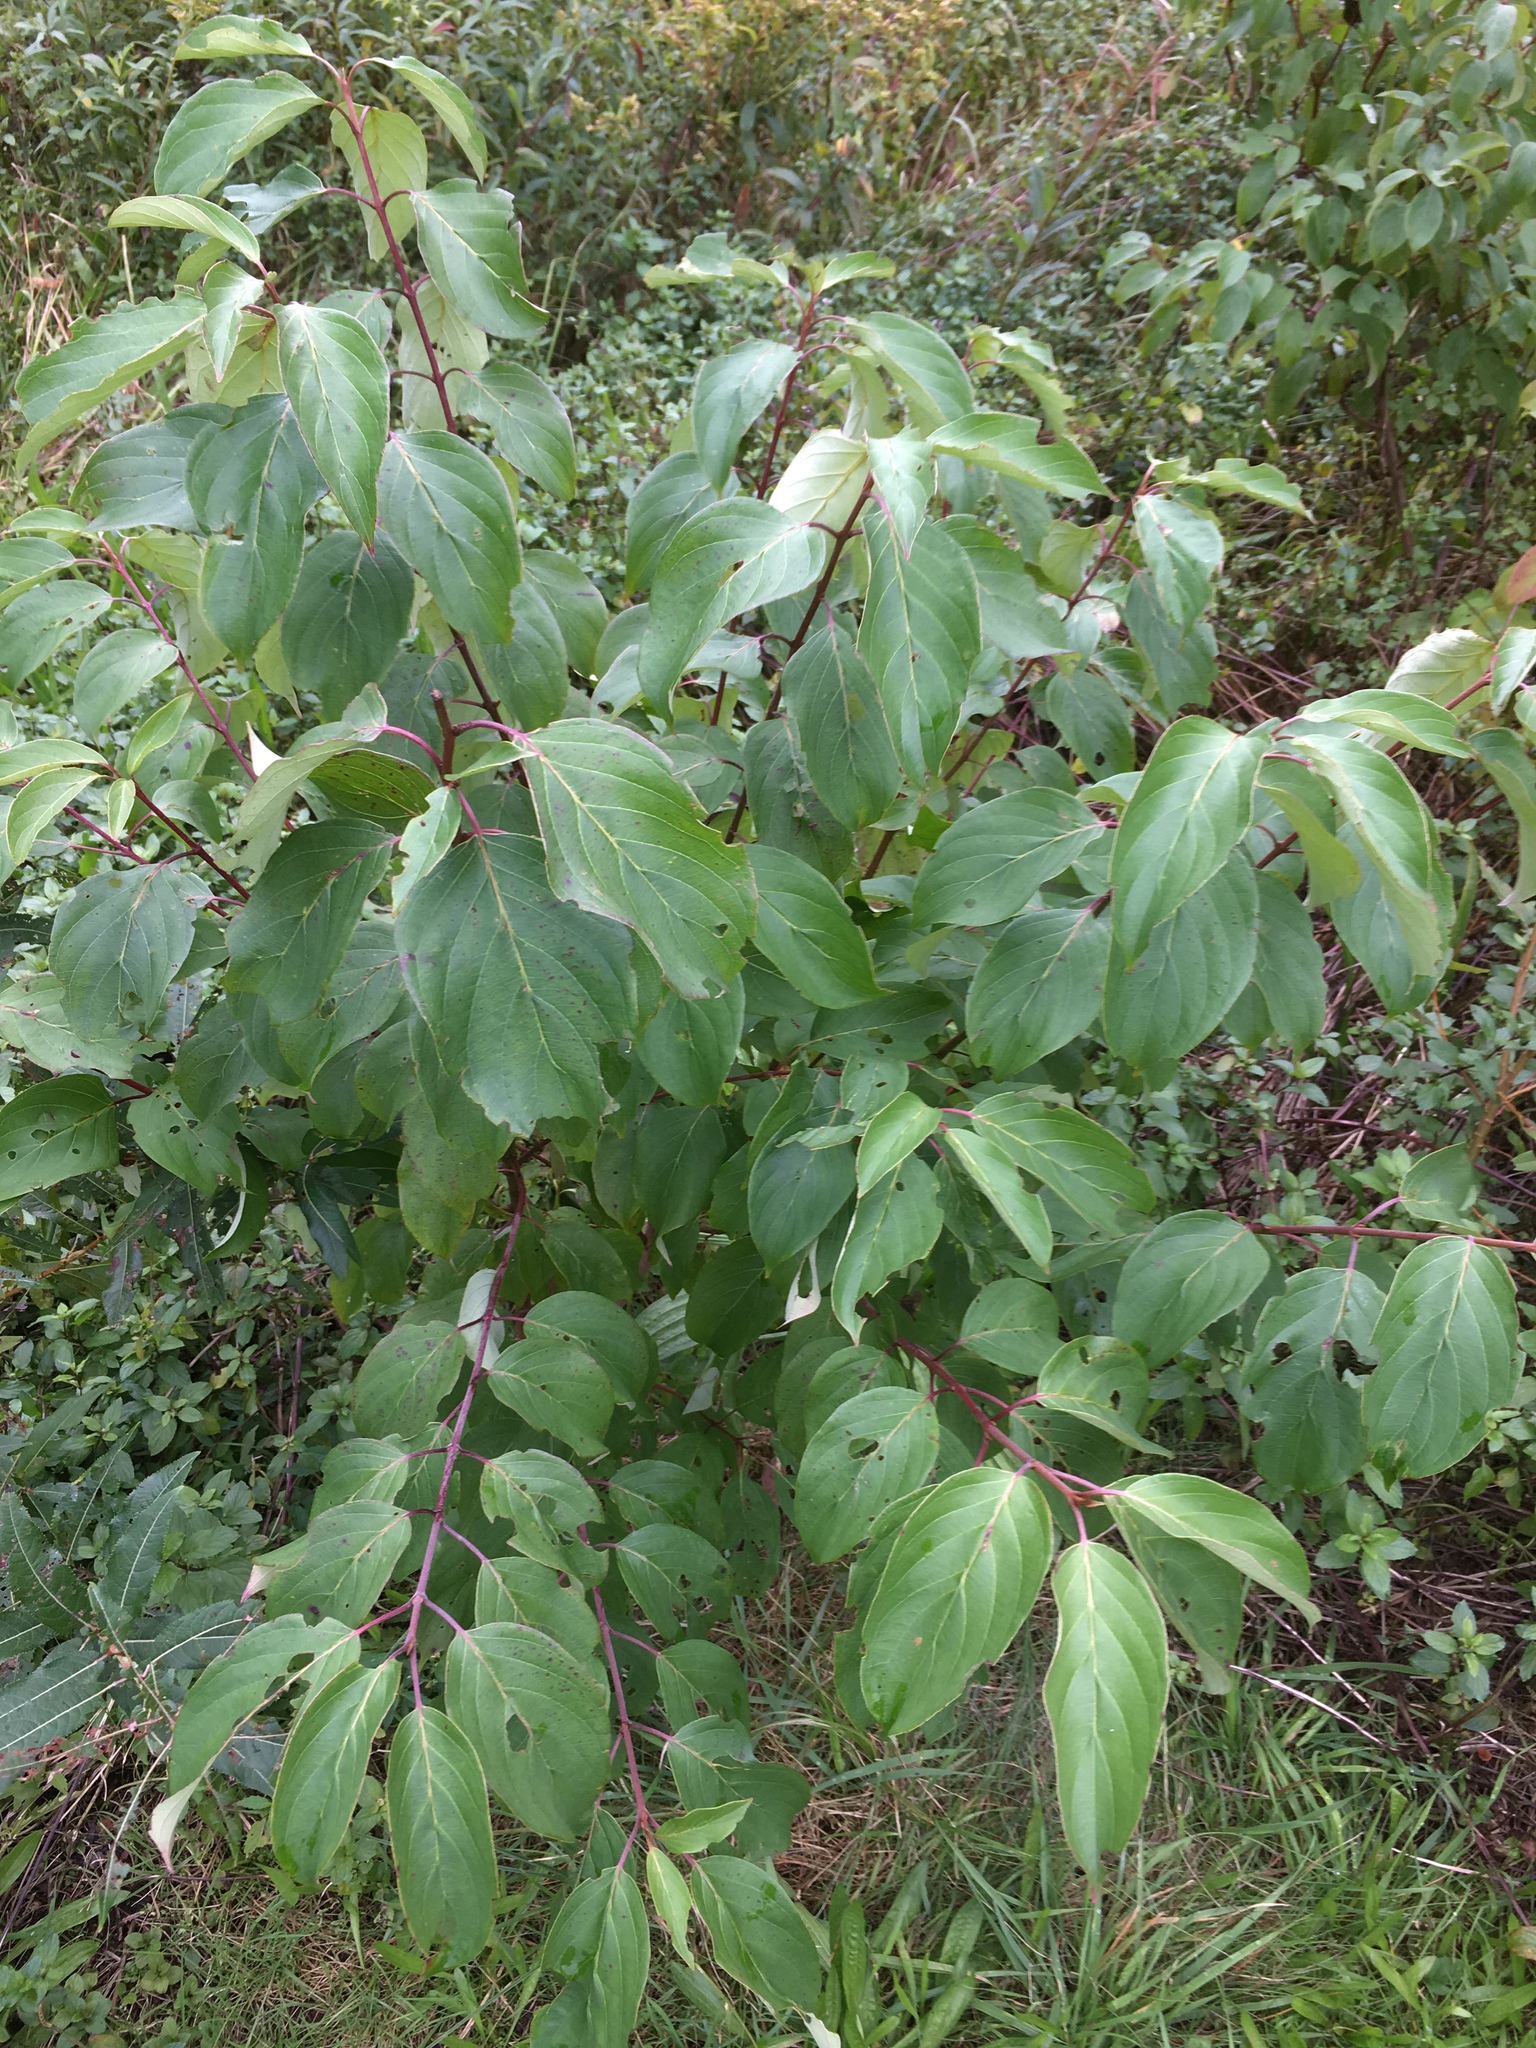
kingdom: Plantae
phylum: Tracheophyta
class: Magnoliopsida
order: Cornales
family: Cornaceae
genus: Cornus
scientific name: Cornus sericea
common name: Red-osier dogwood
